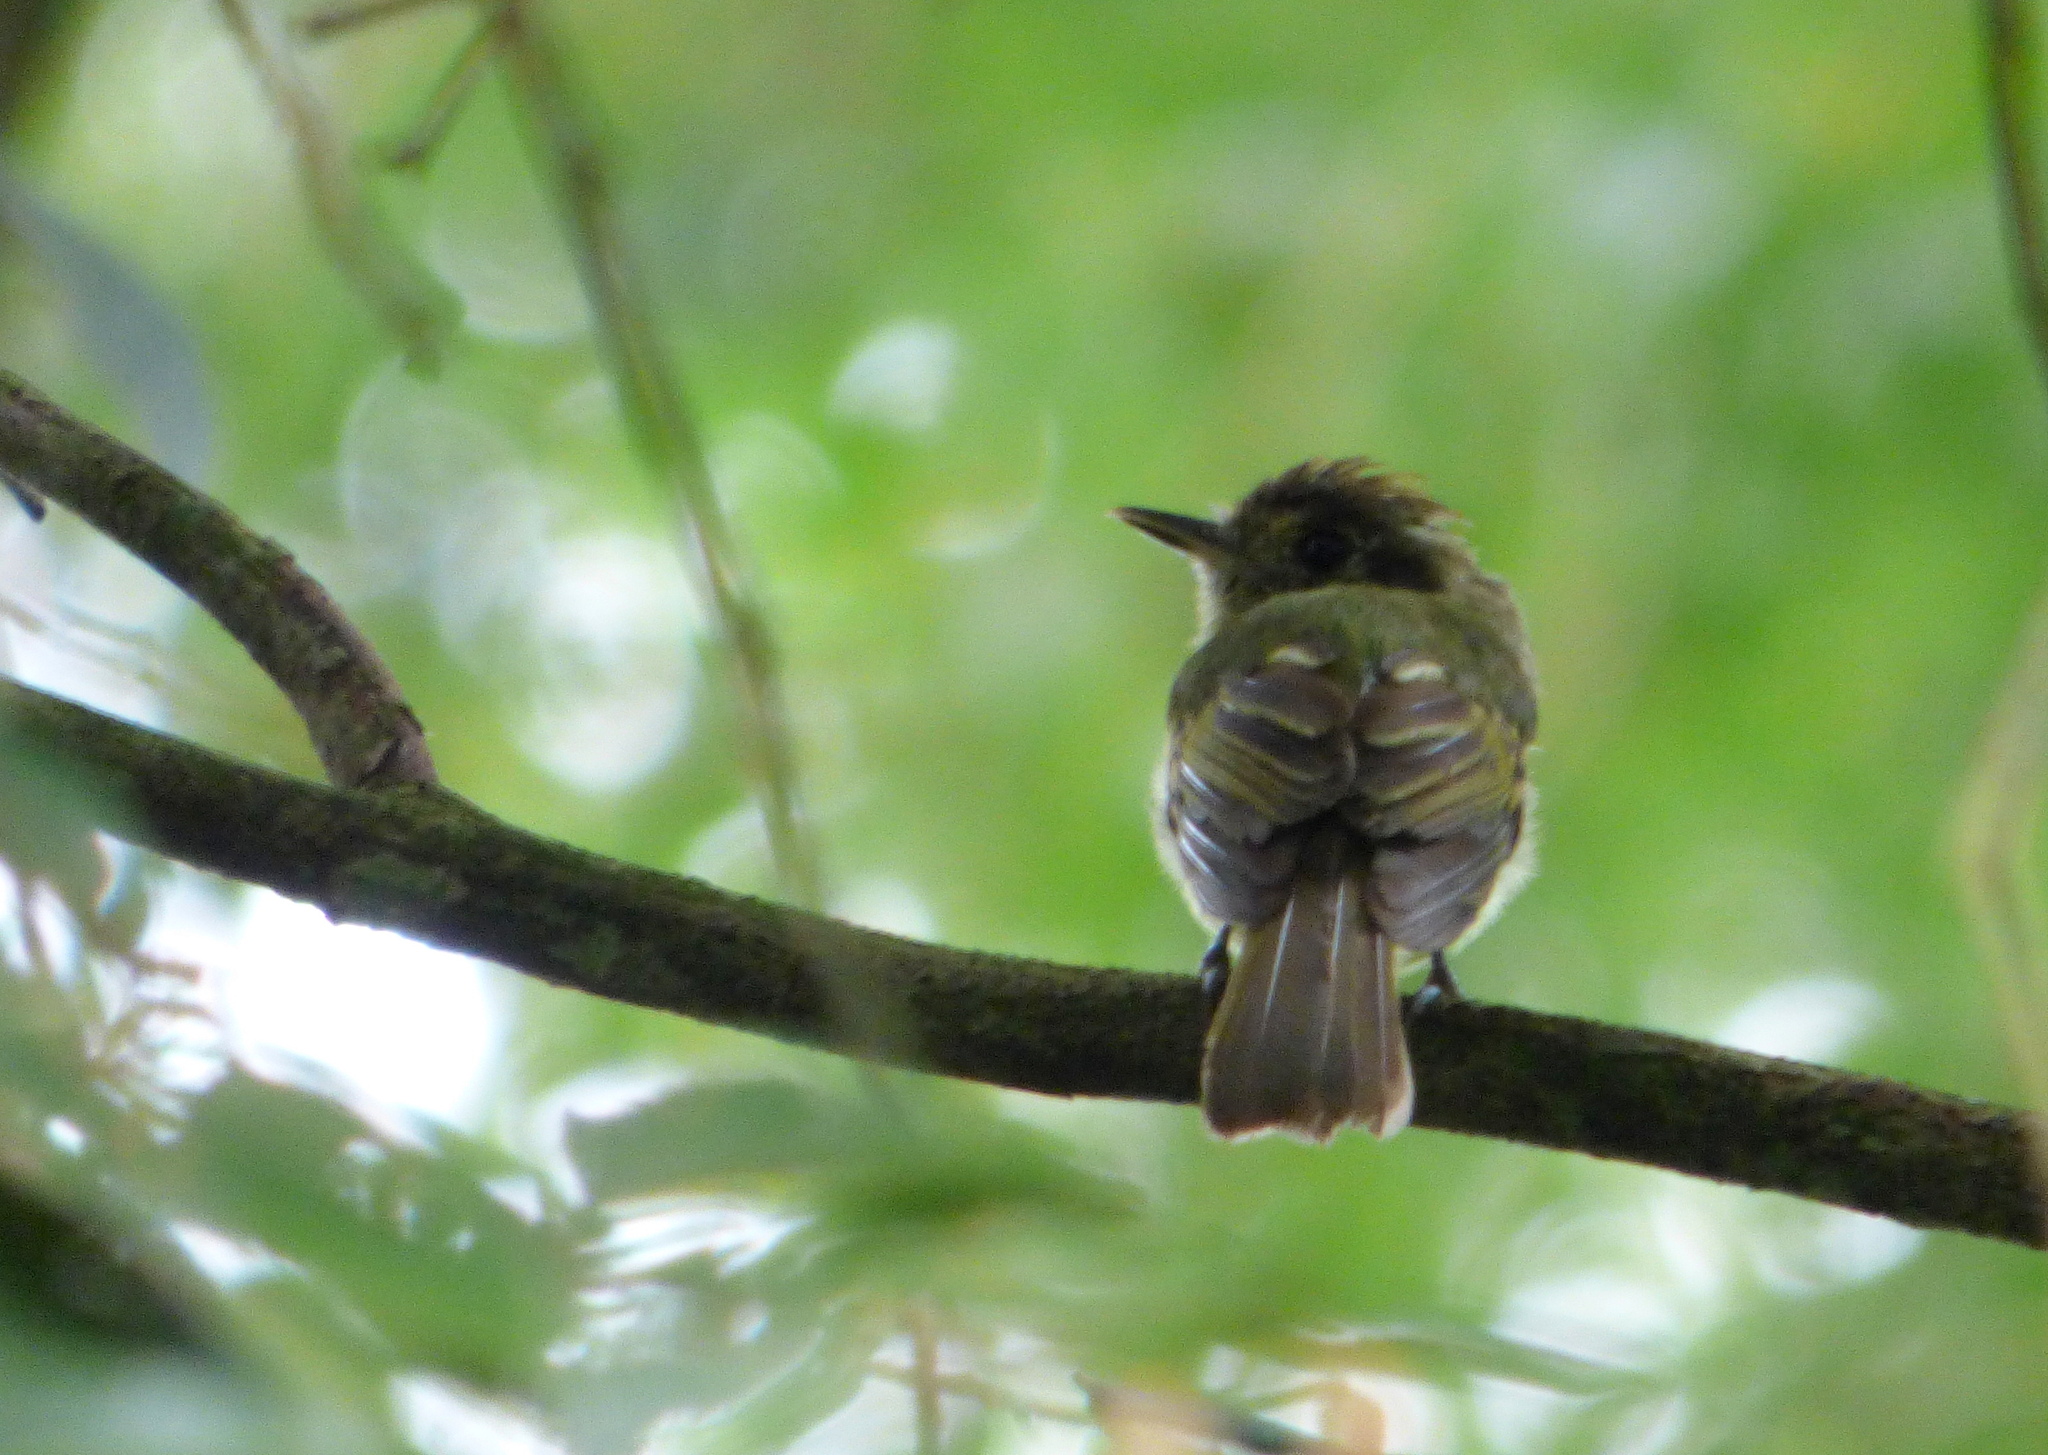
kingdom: Animalia
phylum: Chordata
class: Aves
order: Passeriformes
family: Tyrannidae
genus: Leptopogon
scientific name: Leptopogon amaurocephalus
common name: Sepia-capped flycatcher
